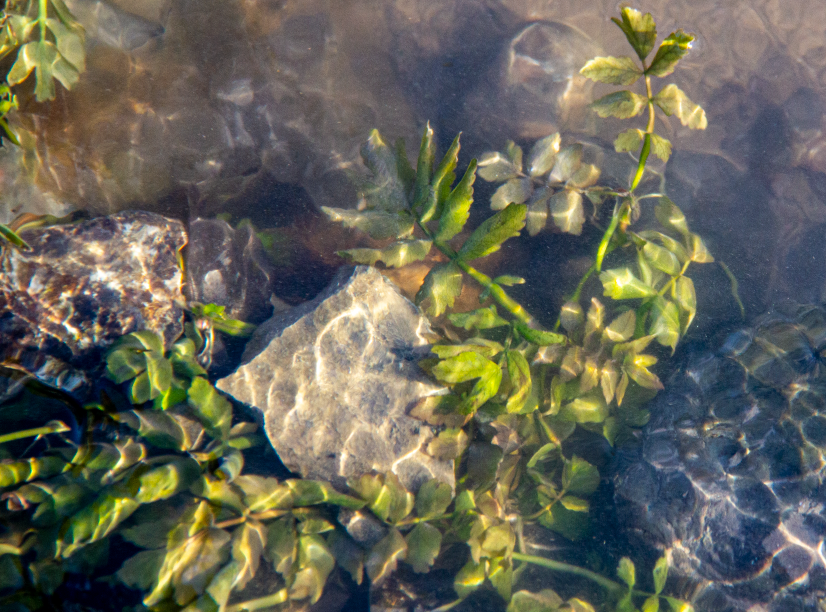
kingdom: Plantae
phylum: Tracheophyta
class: Magnoliopsida
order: Apiales
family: Apiaceae
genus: Berula
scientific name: Berula erecta
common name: Lesser water-parsnip
